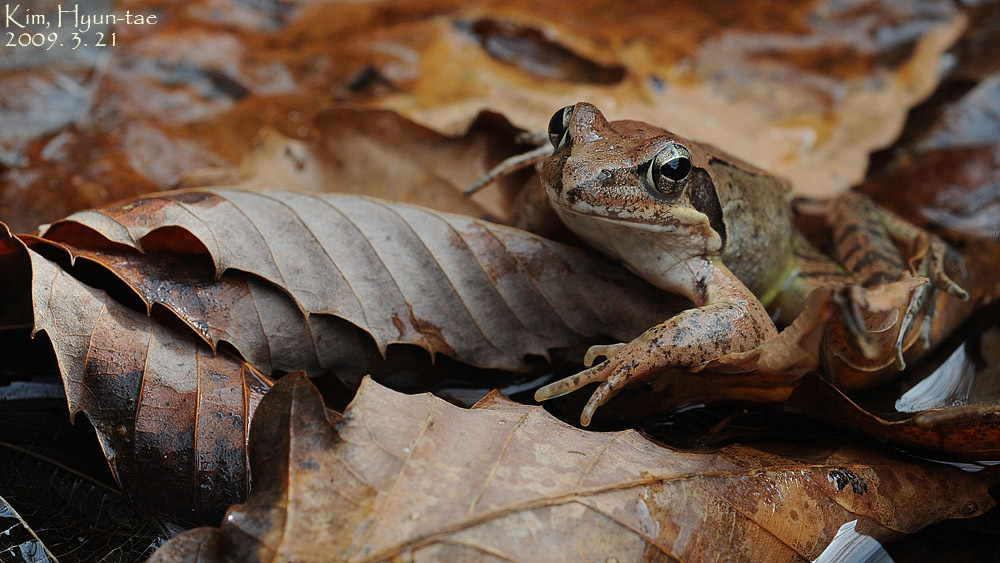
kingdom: Animalia
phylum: Chordata
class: Amphibia
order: Anura
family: Ranidae
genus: Rana
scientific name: Rana uenoi
